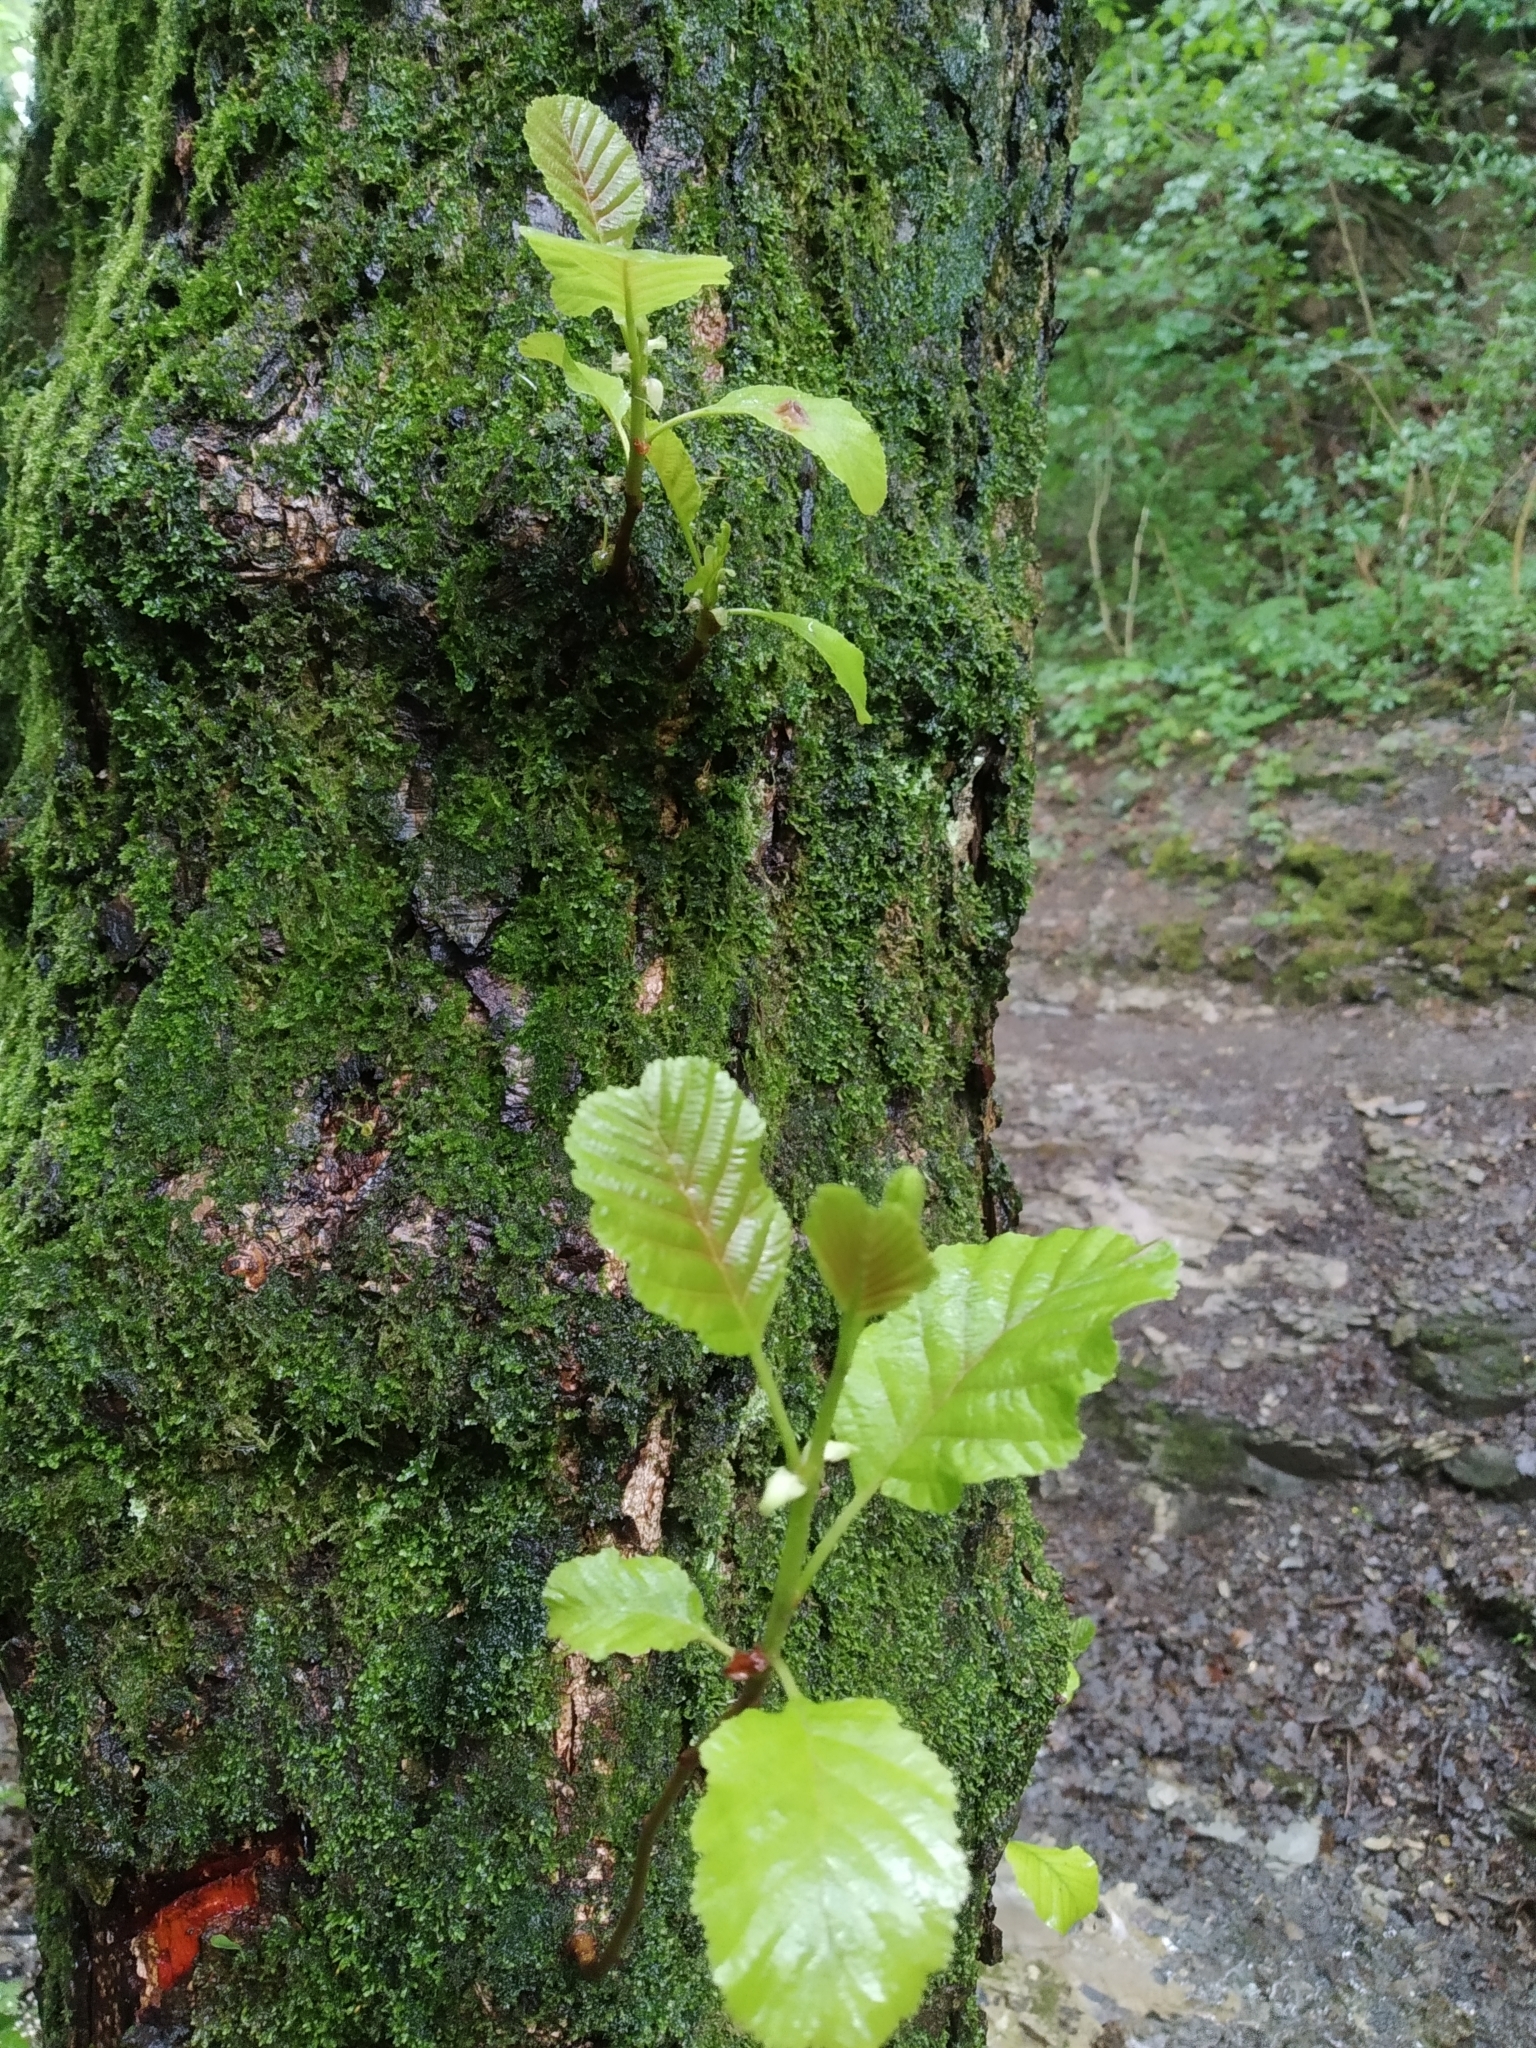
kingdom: Plantae
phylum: Tracheophyta
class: Magnoliopsida
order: Fagales
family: Betulaceae
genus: Alnus
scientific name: Alnus glutinosa
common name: Black alder
